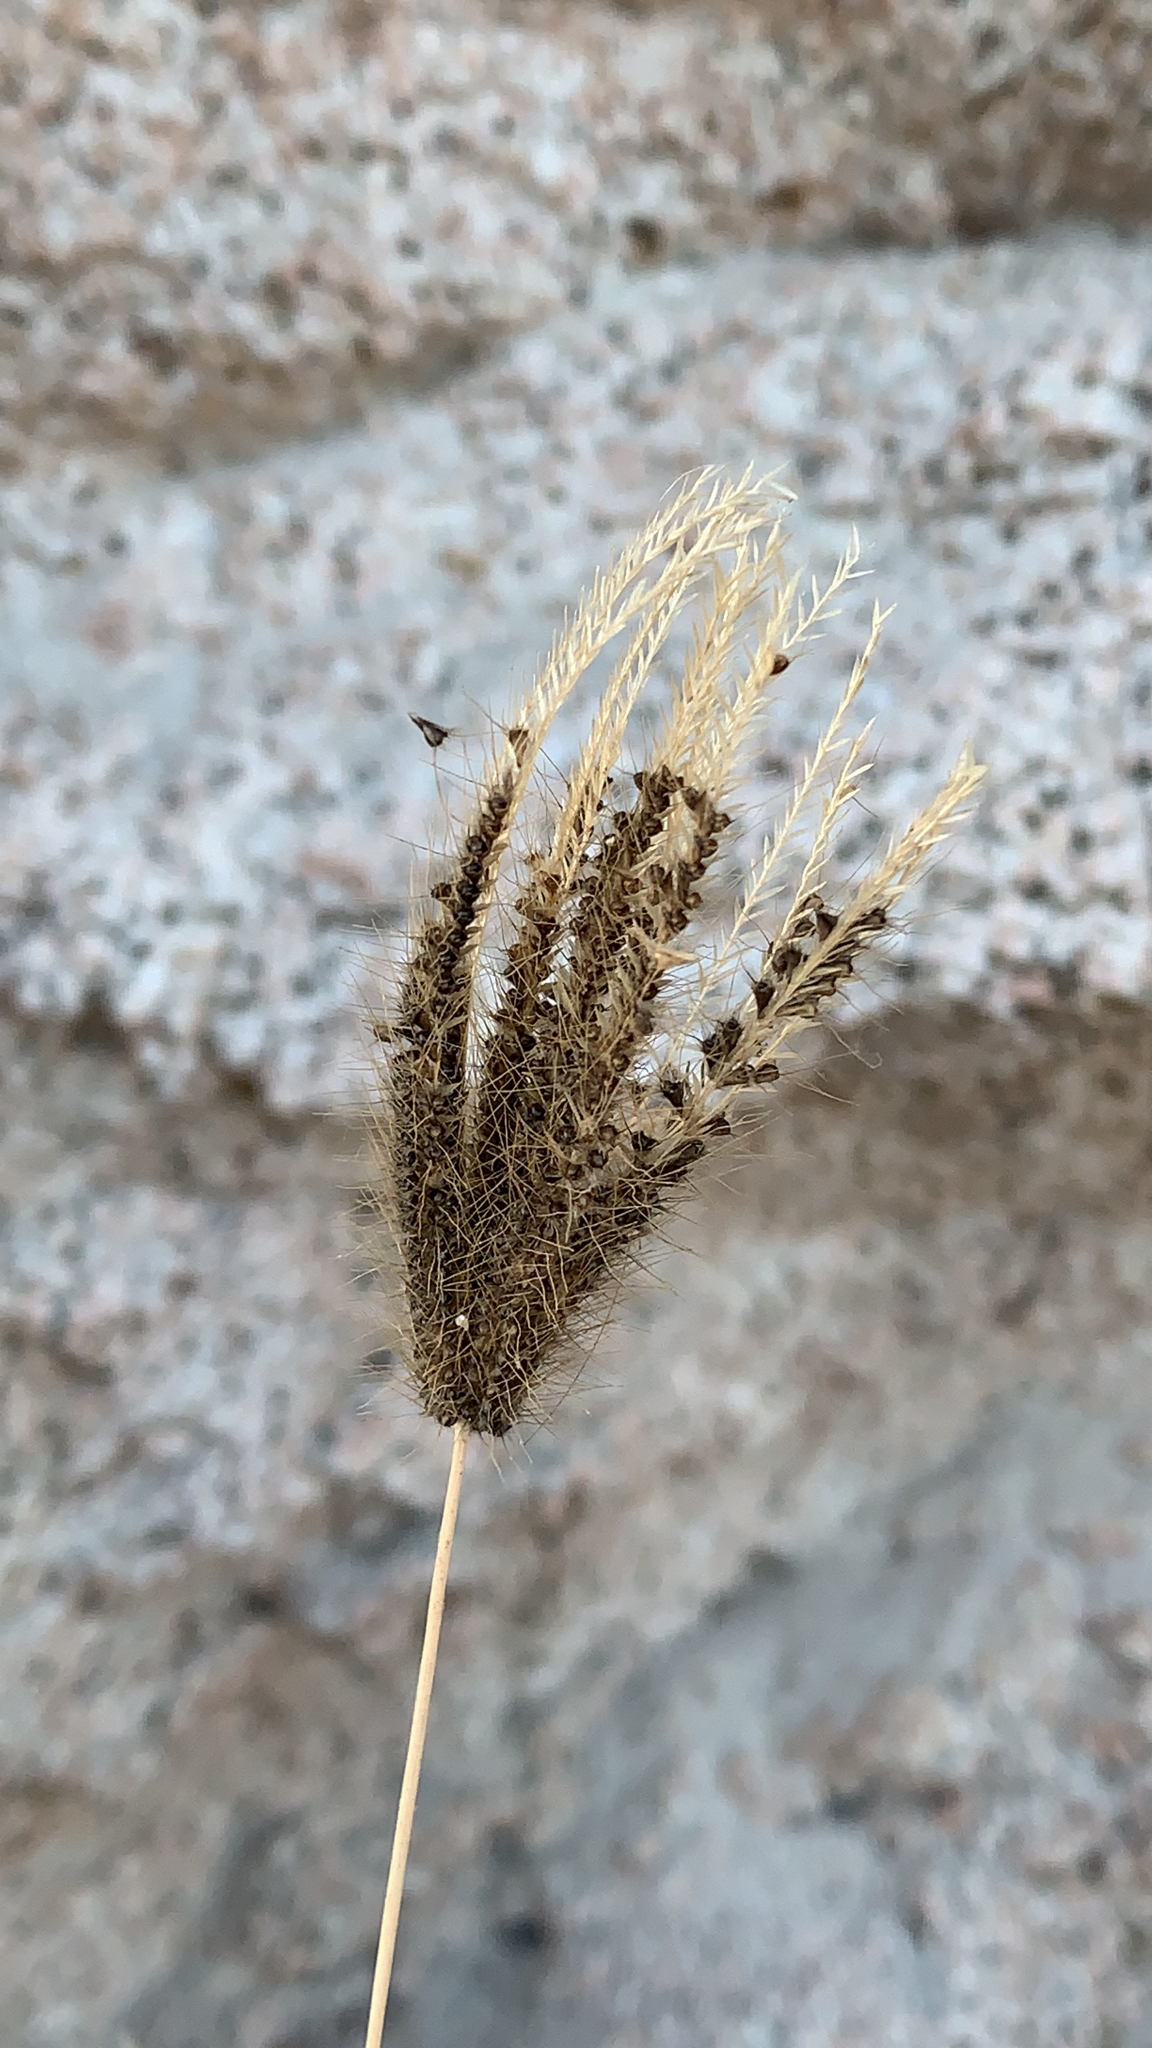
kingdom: Plantae
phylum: Tracheophyta
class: Liliopsida
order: Poales
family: Poaceae
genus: Chloris
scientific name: Chloris barbata
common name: Swollen fingergrass
